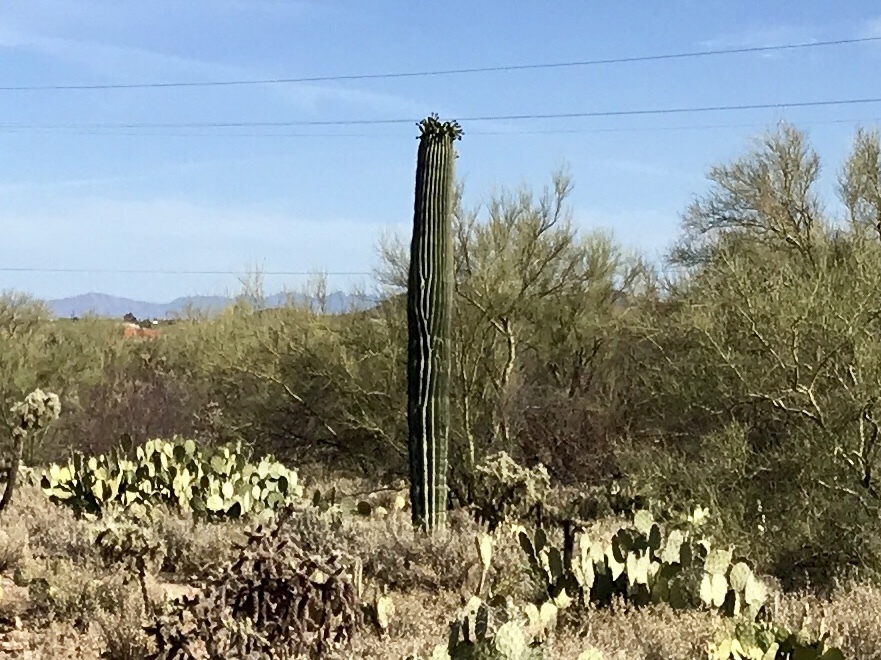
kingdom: Plantae
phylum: Tracheophyta
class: Magnoliopsida
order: Caryophyllales
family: Cactaceae
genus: Carnegiea
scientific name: Carnegiea gigantea
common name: Saguaro
